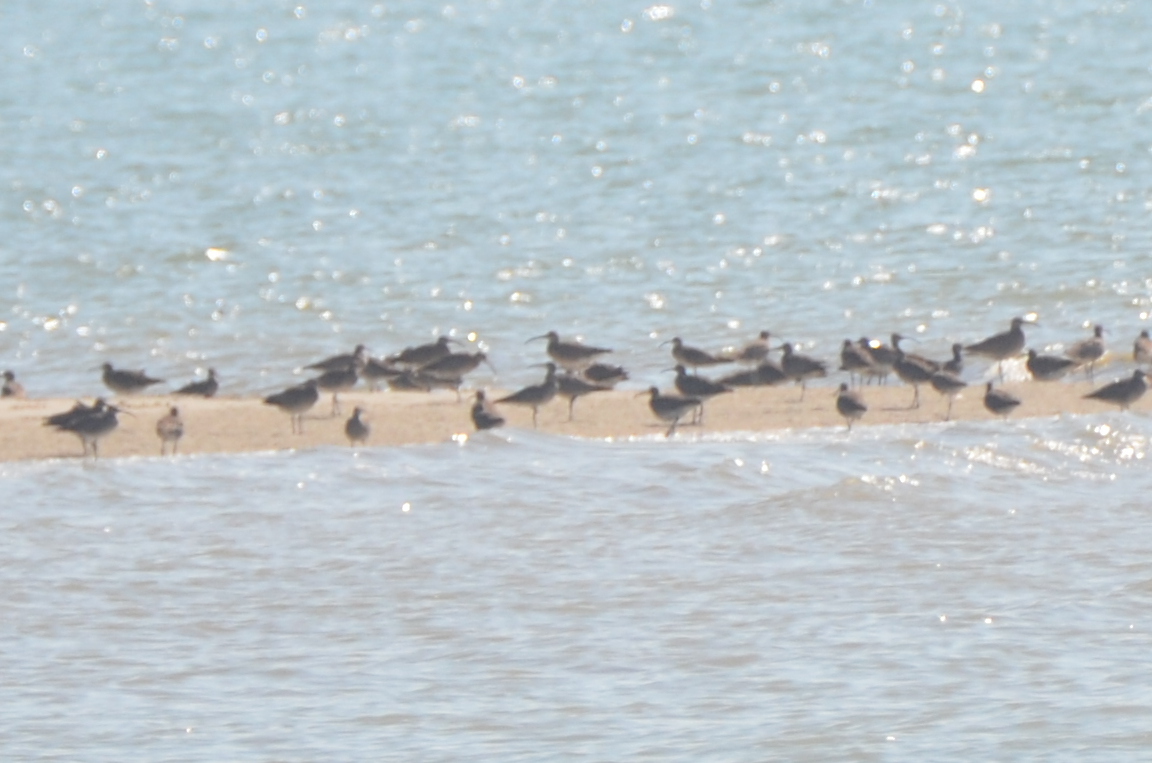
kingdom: Animalia
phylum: Chordata
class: Aves
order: Charadriiformes
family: Scolopacidae
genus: Numenius
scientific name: Numenius phaeopus
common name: Whimbrel
